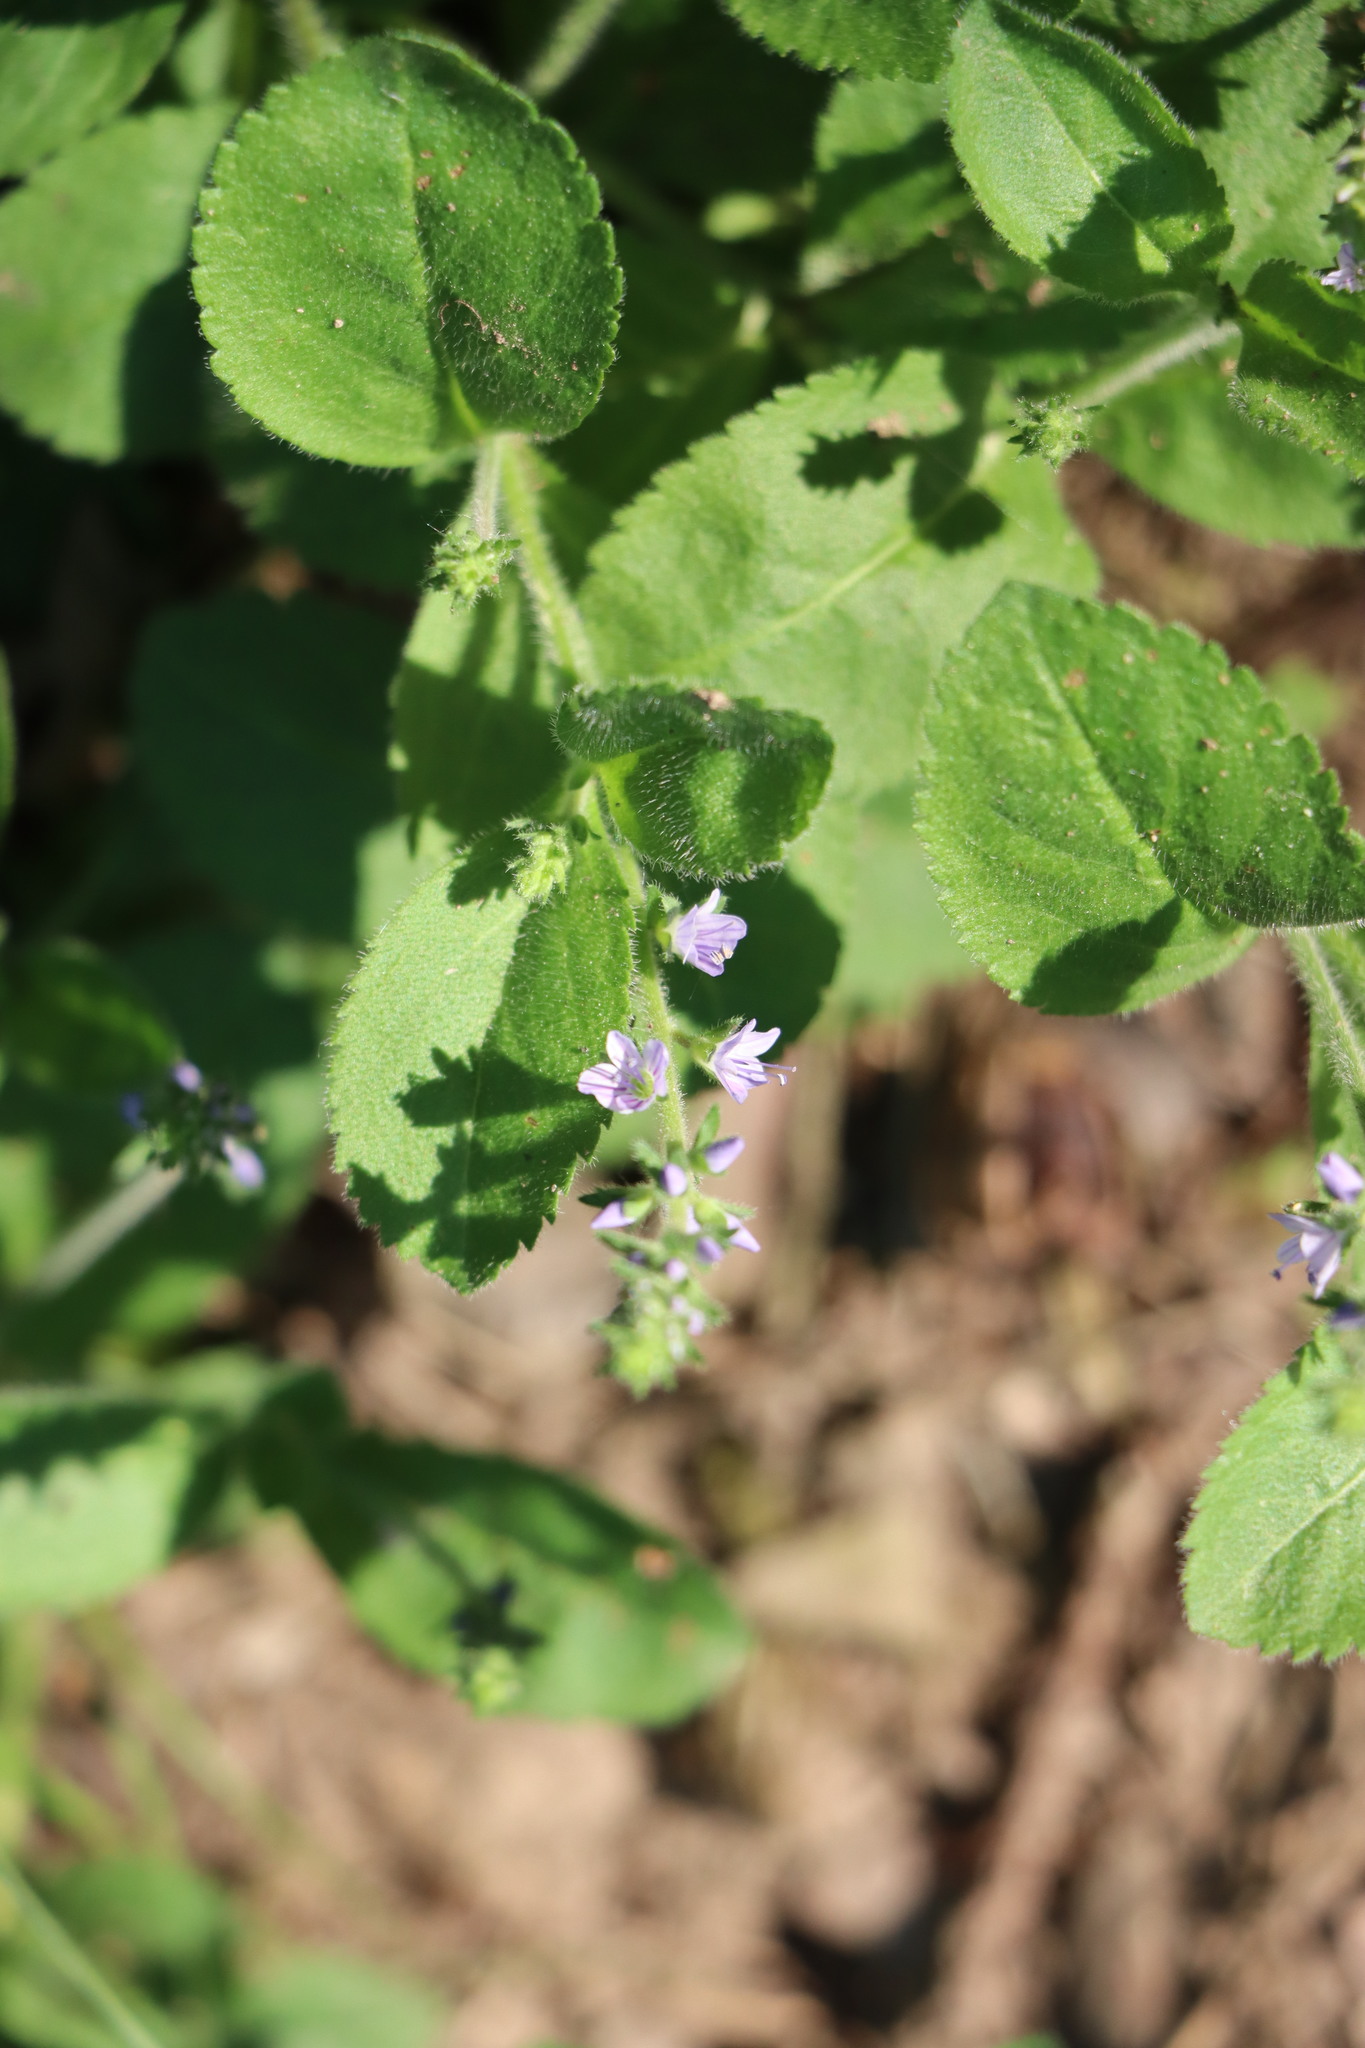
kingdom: Plantae
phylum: Tracheophyta
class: Magnoliopsida
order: Lamiales
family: Plantaginaceae
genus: Veronica
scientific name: Veronica officinalis
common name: Common speedwell
